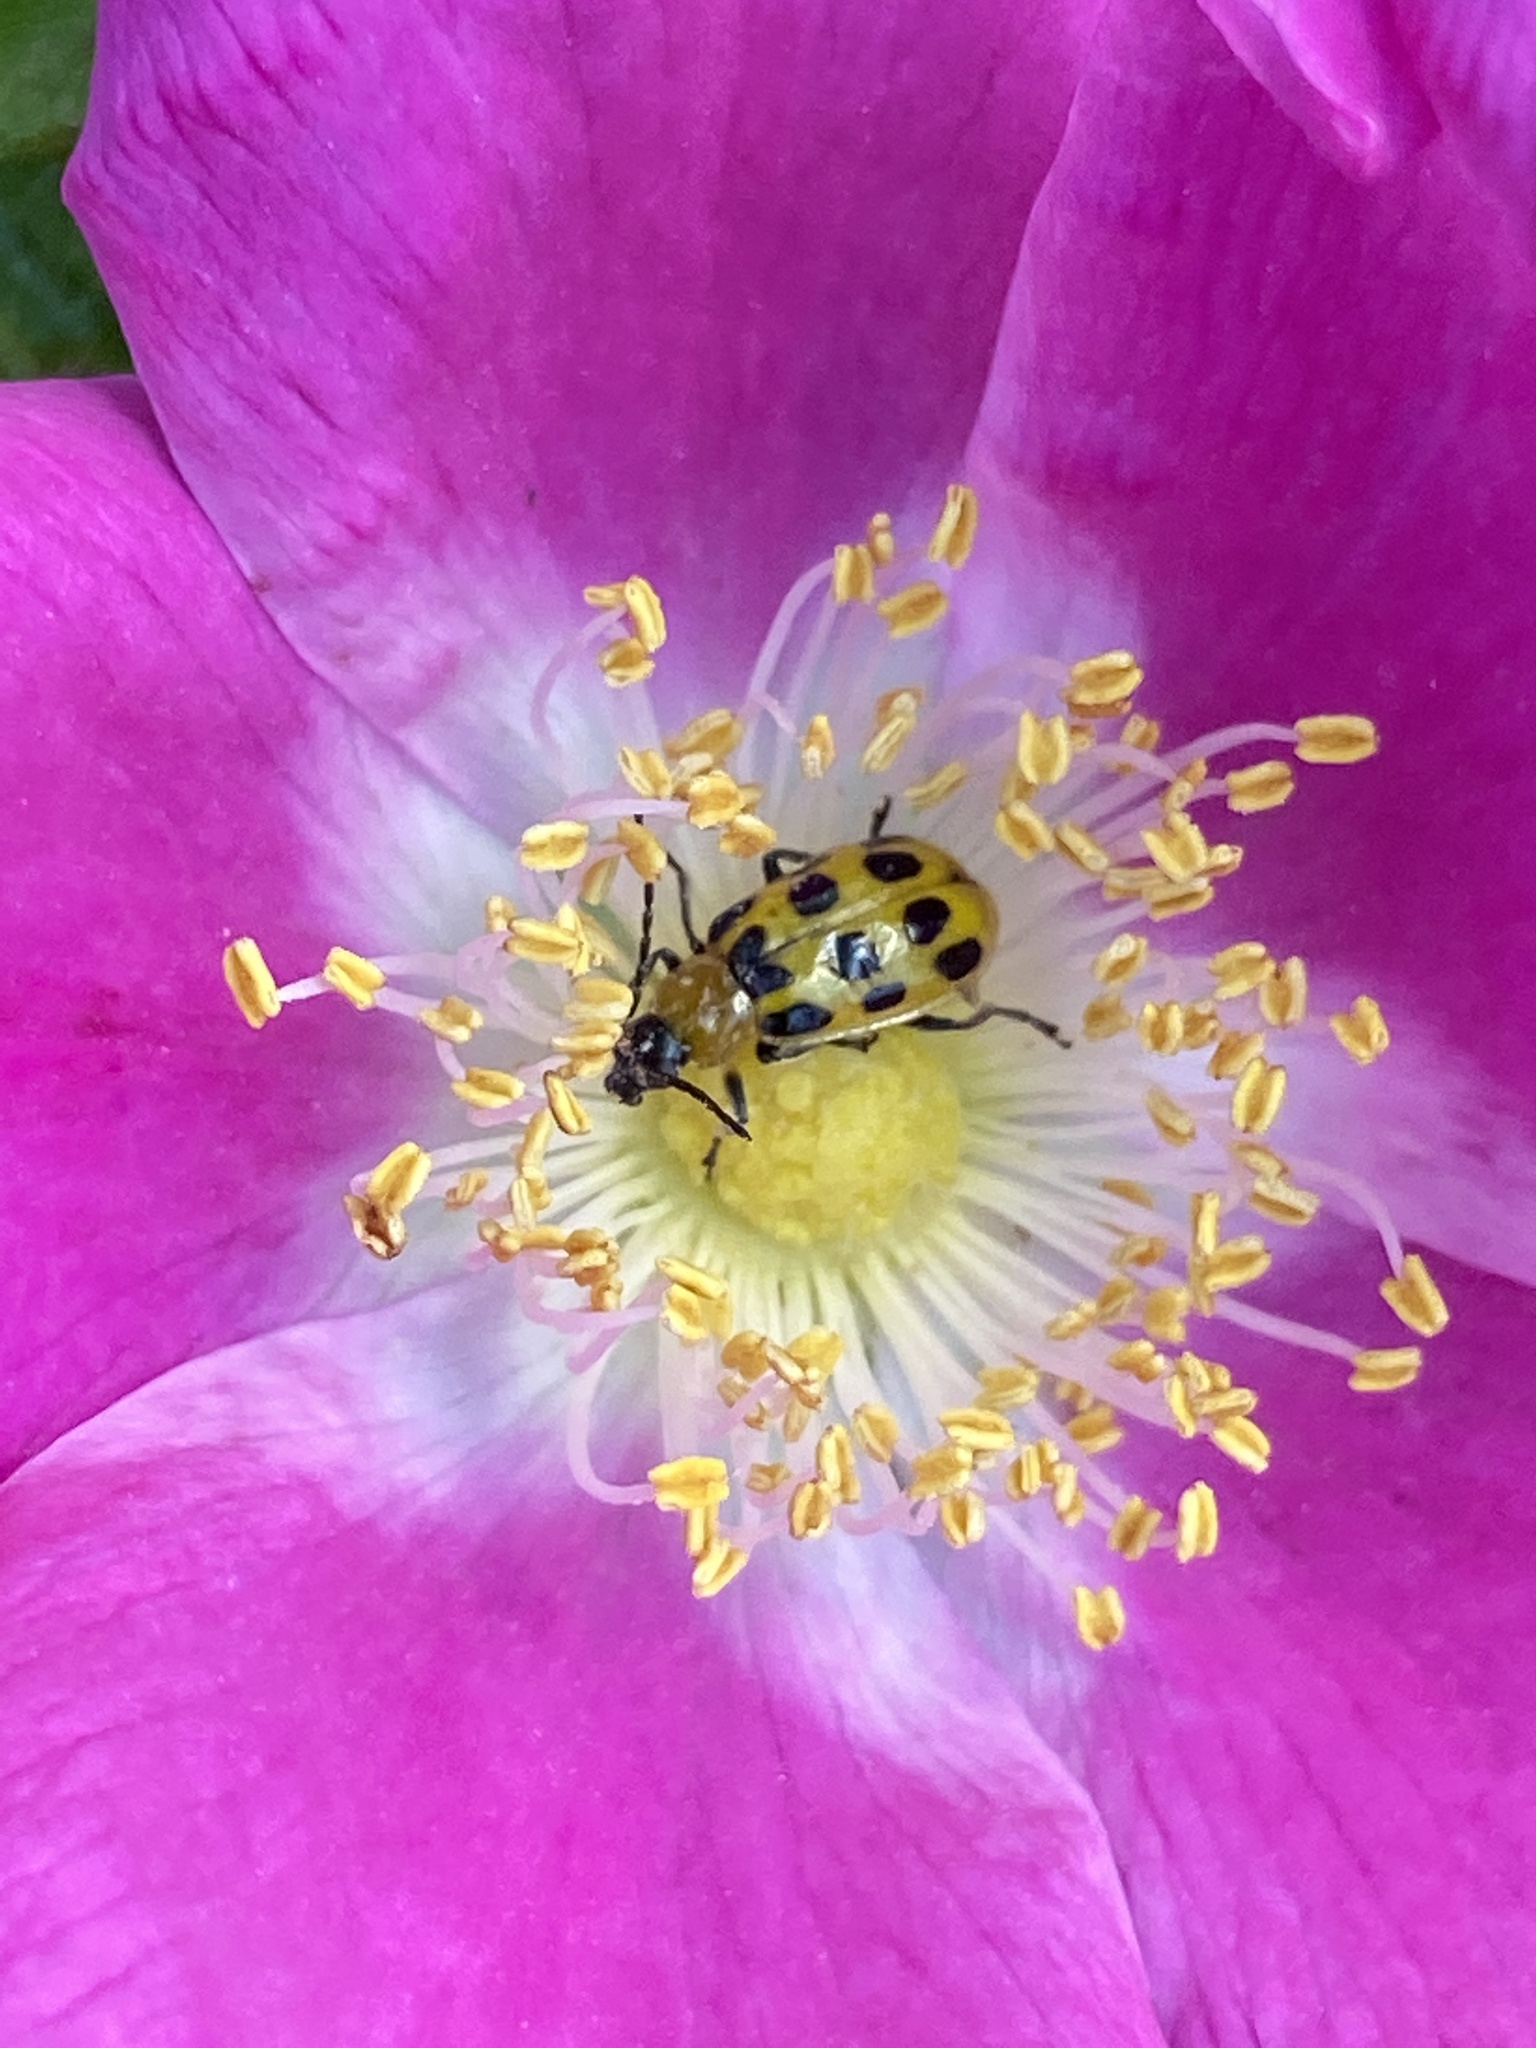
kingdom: Animalia
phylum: Arthropoda
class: Insecta
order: Coleoptera
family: Chrysomelidae
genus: Diabrotica
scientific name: Diabrotica undecimpunctata
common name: Spotted cucumber beetle
